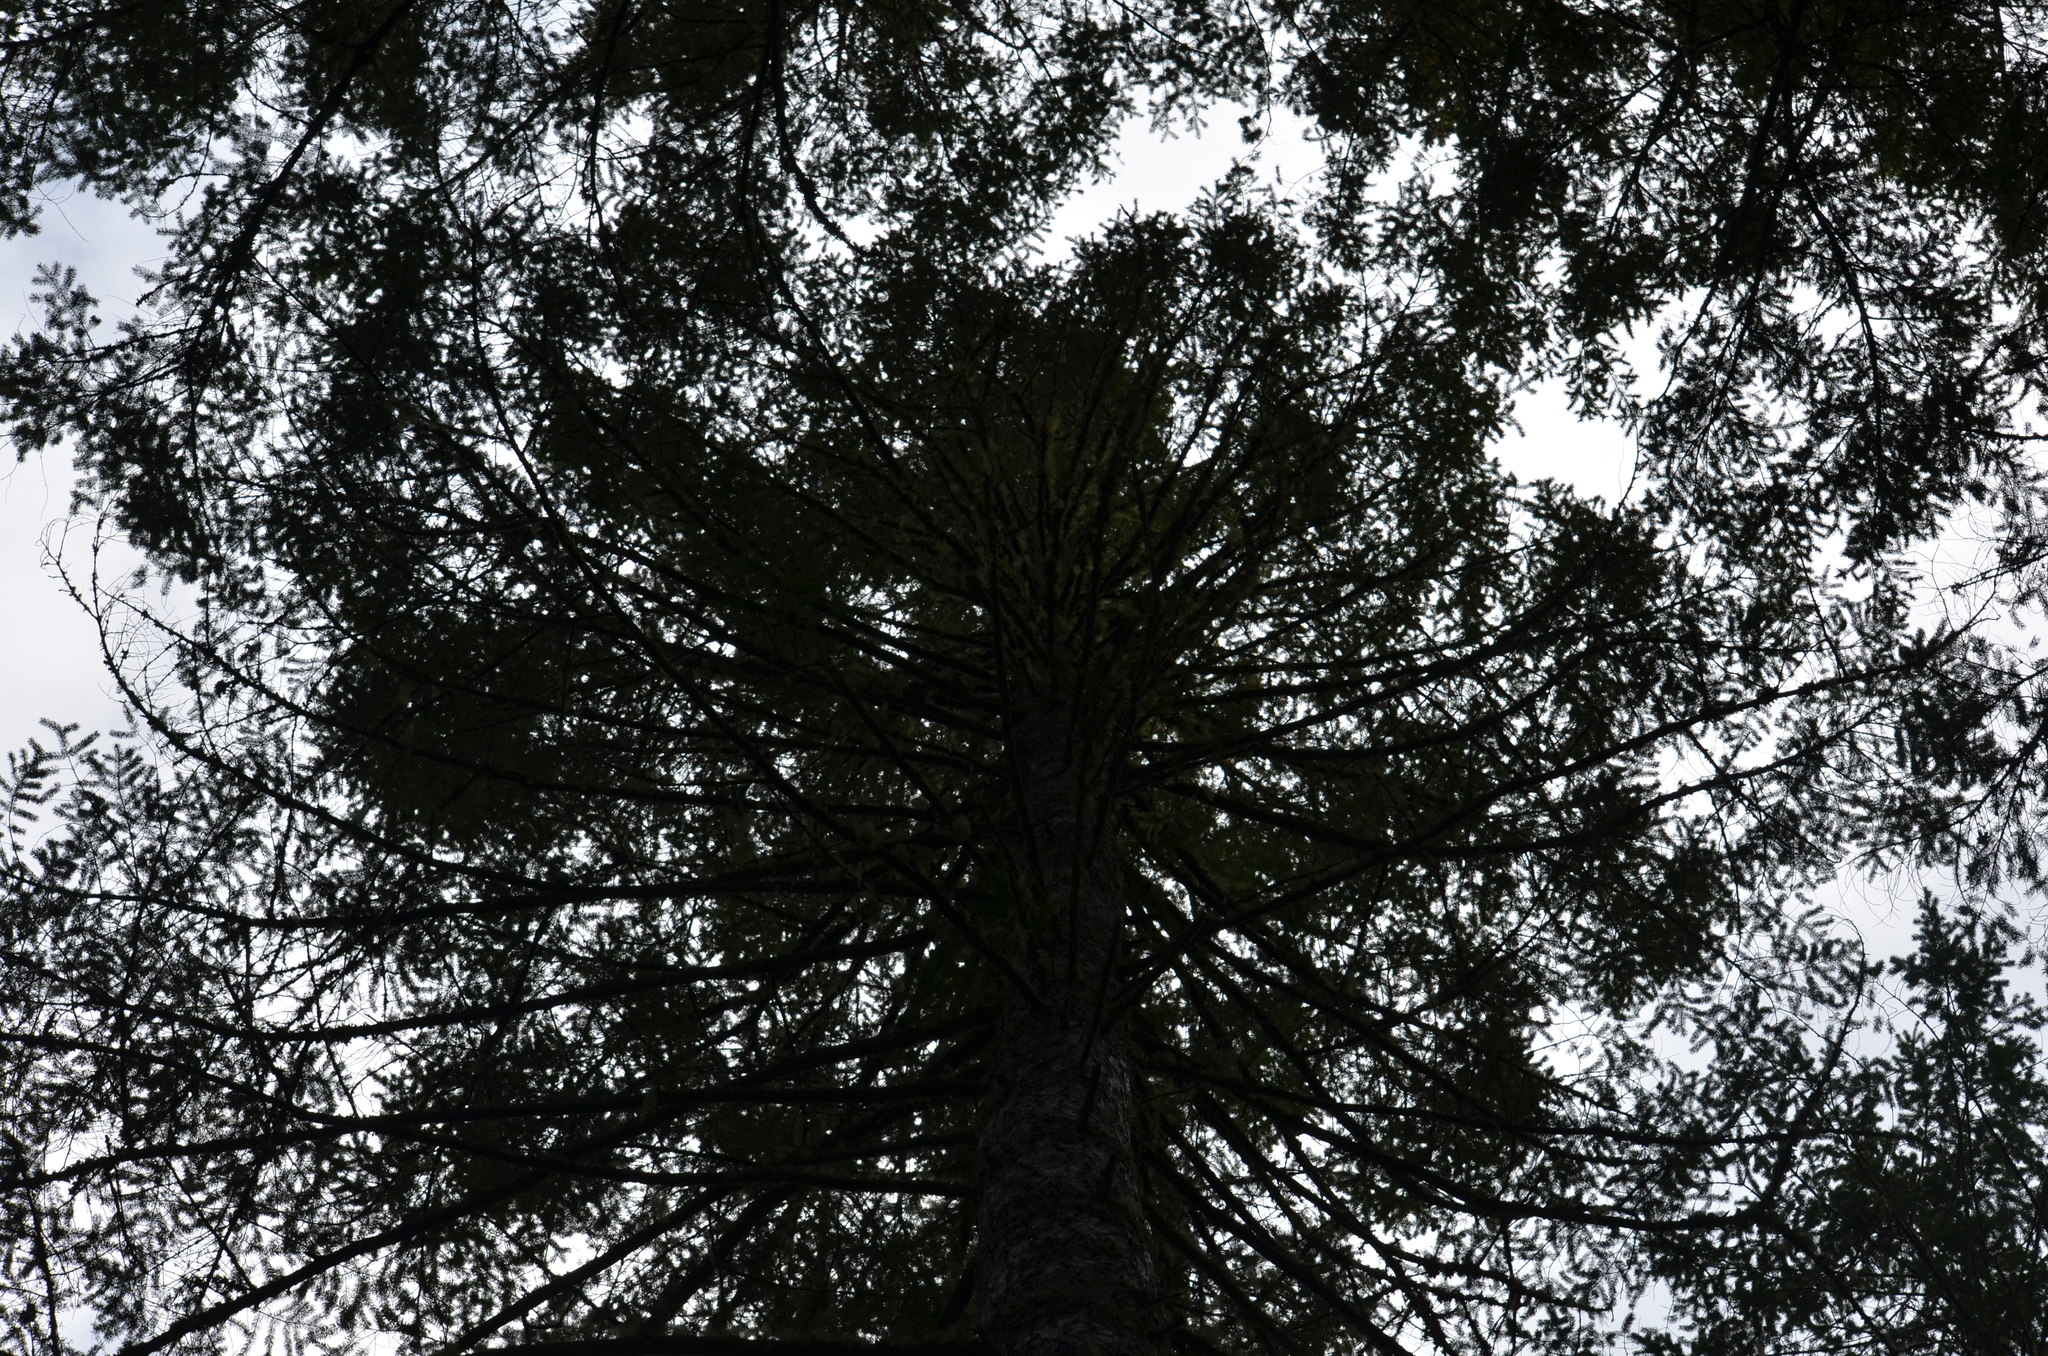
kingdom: Plantae
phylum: Tracheophyta
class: Pinopsida
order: Pinales
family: Pinaceae
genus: Pseudotsuga
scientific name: Pseudotsuga menziesii
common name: Douglas fir
